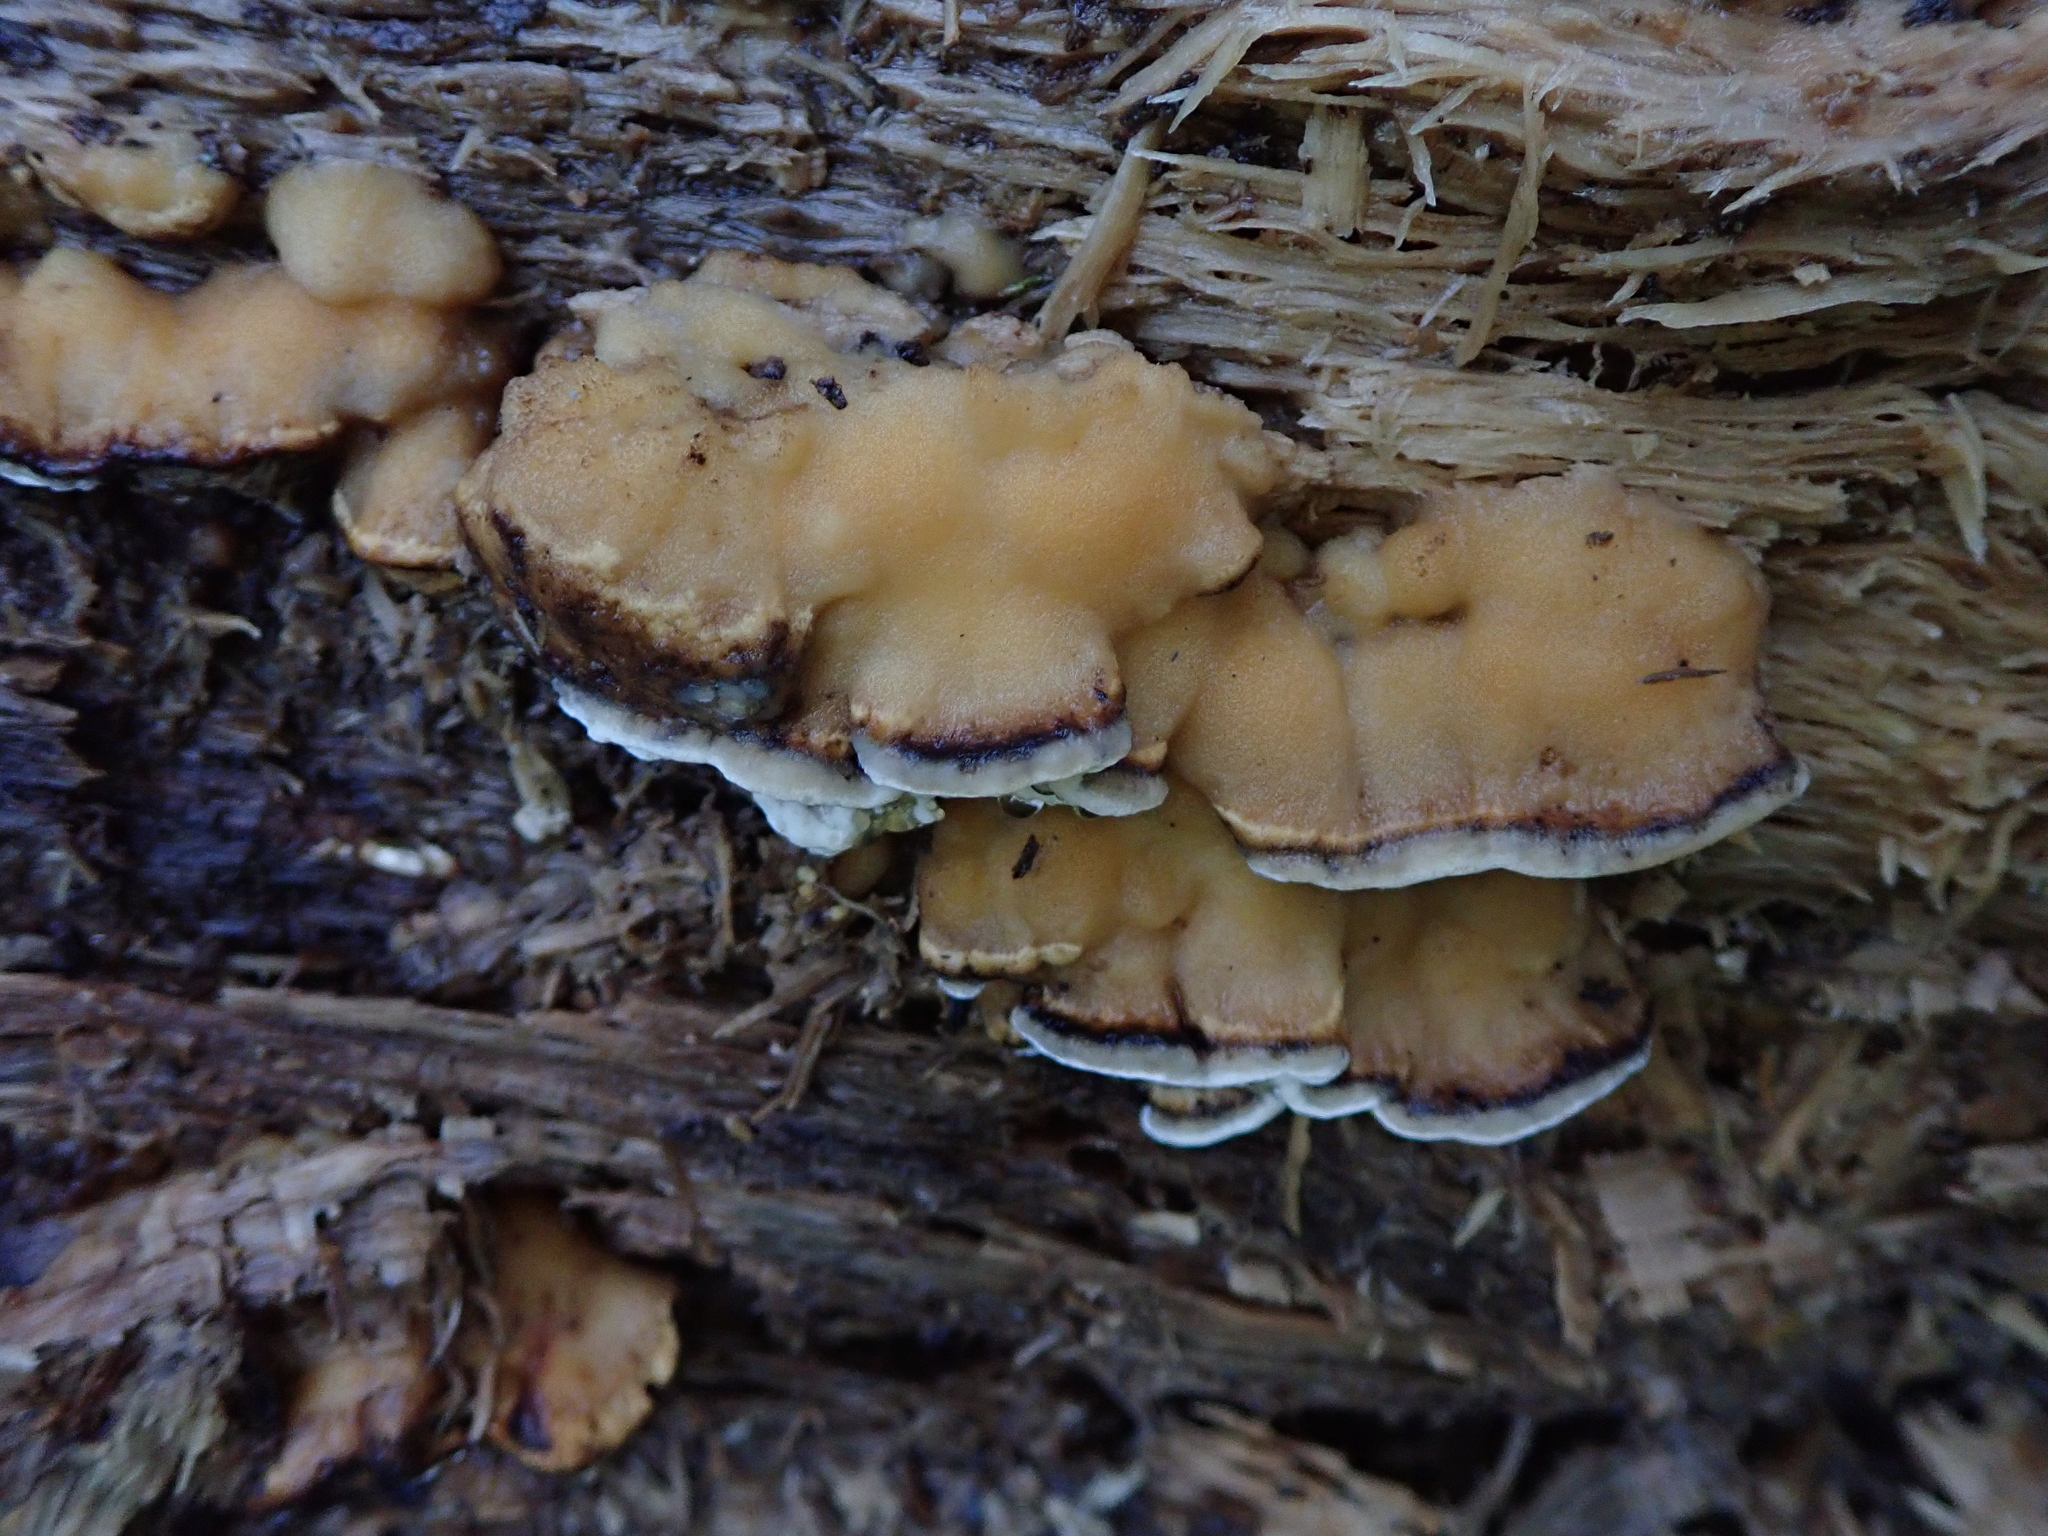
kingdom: Fungi
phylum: Basidiomycota
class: Agaricomycetes
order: Polyporales
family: Phanerochaetaceae
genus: Bjerkandera
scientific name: Bjerkandera adusta
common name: Smoky bracket
